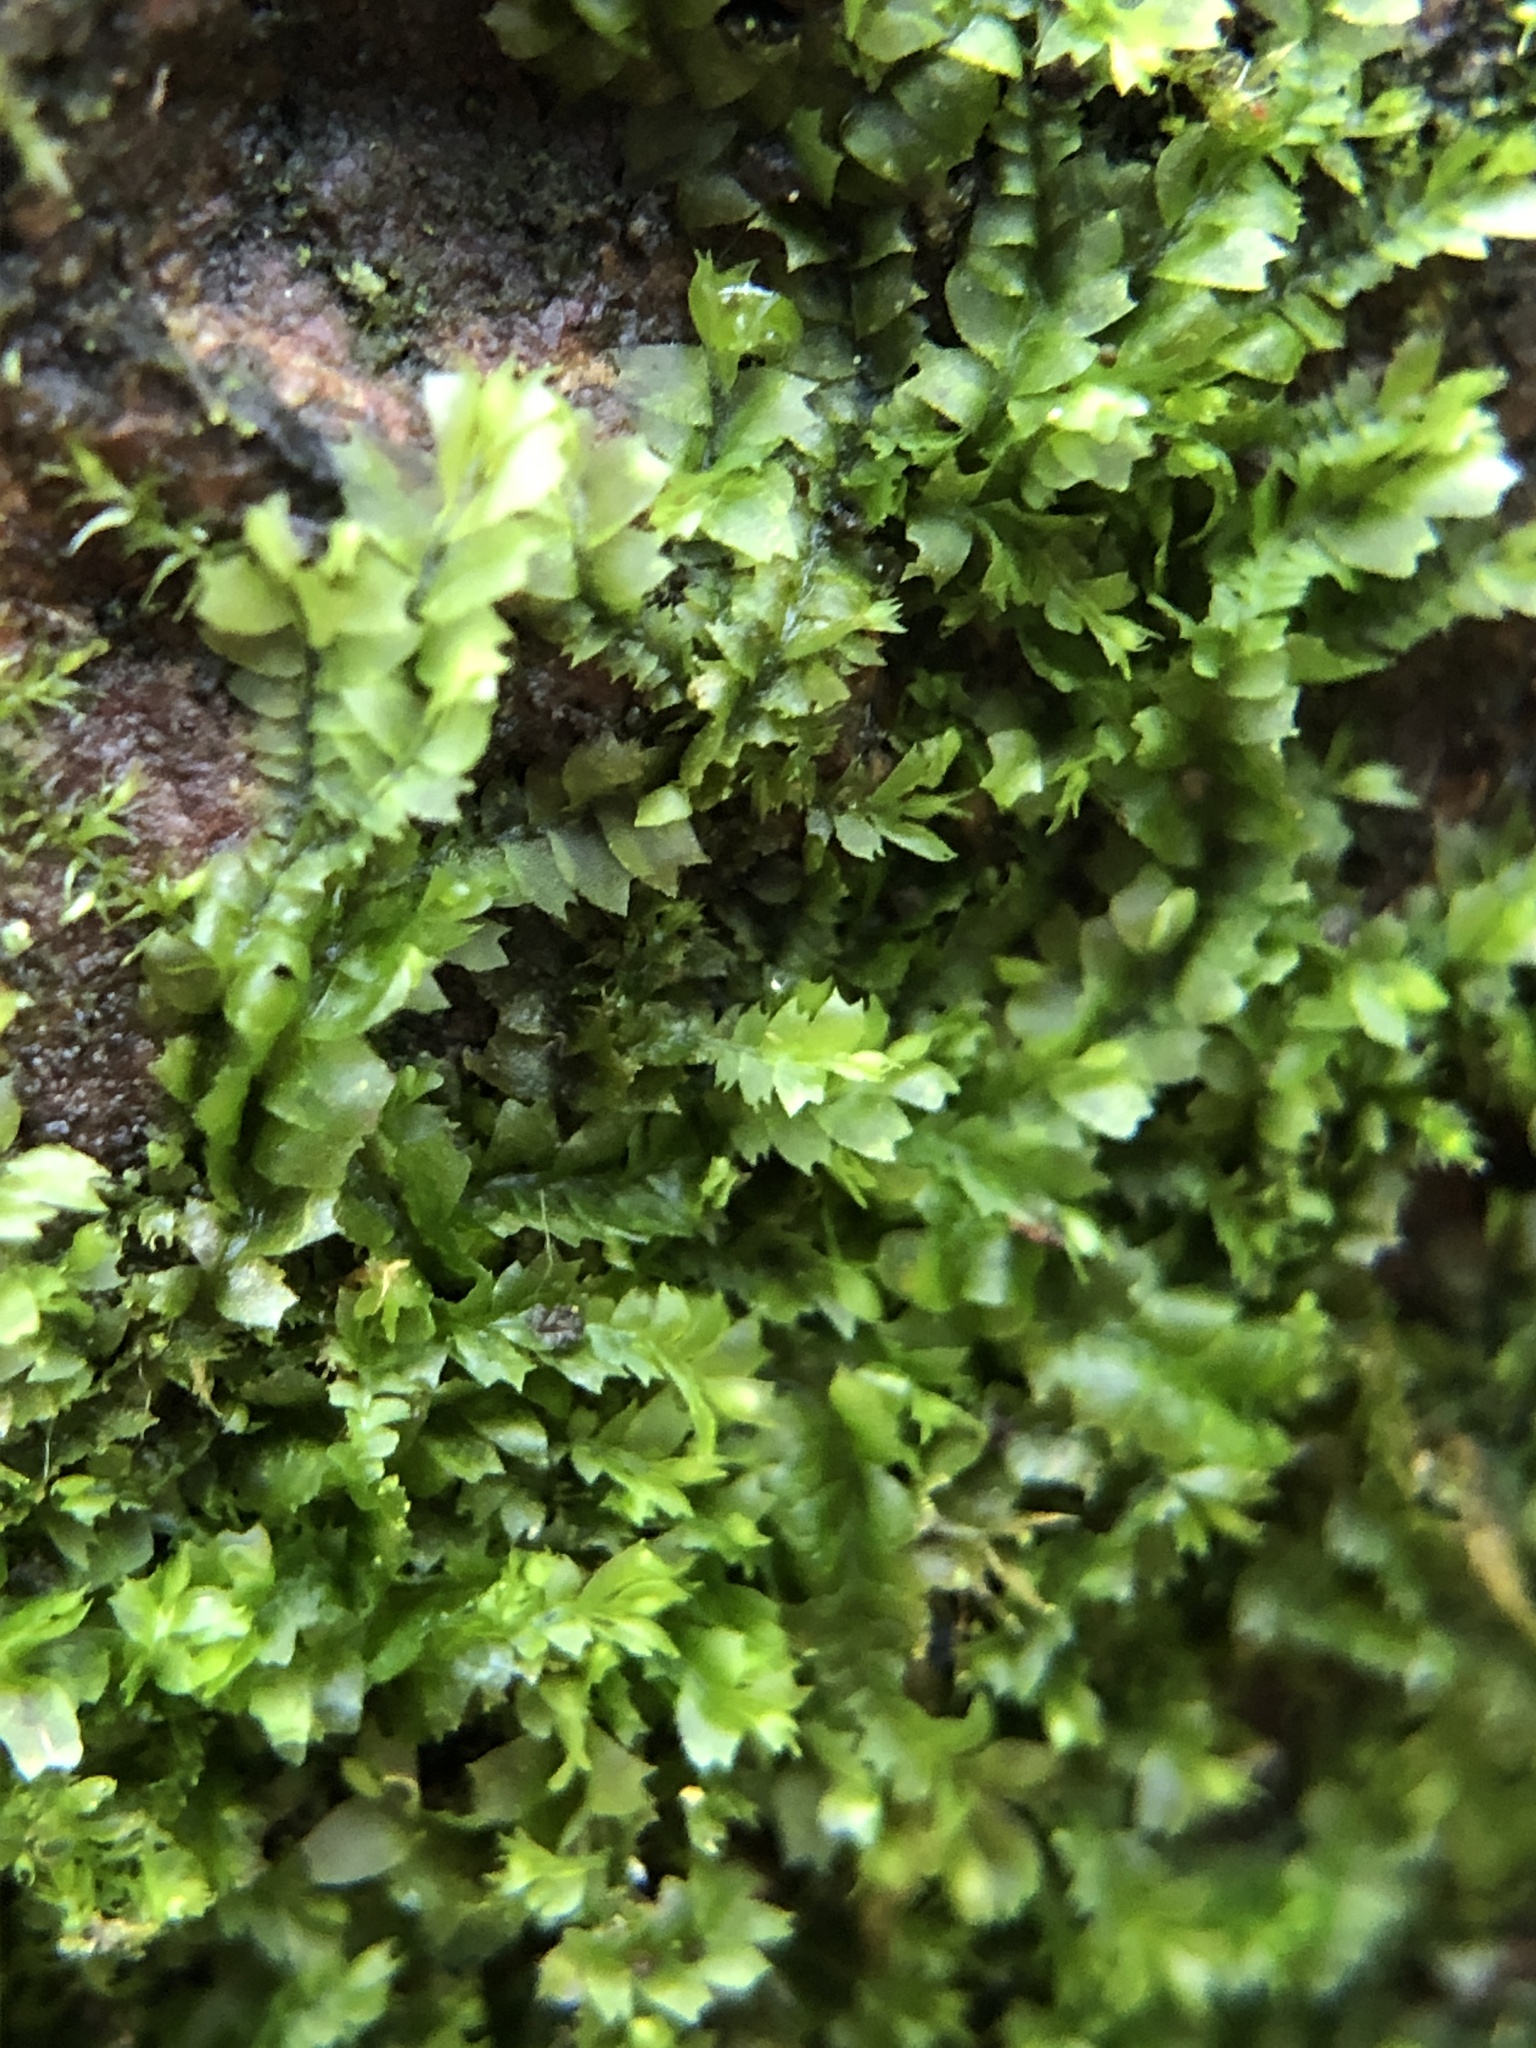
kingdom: Plantae
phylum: Marchantiophyta
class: Jungermanniopsida
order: Jungermanniales
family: Lophocoleaceae
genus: Lophocolea
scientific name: Lophocolea bidentata
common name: Bifid crestwort
